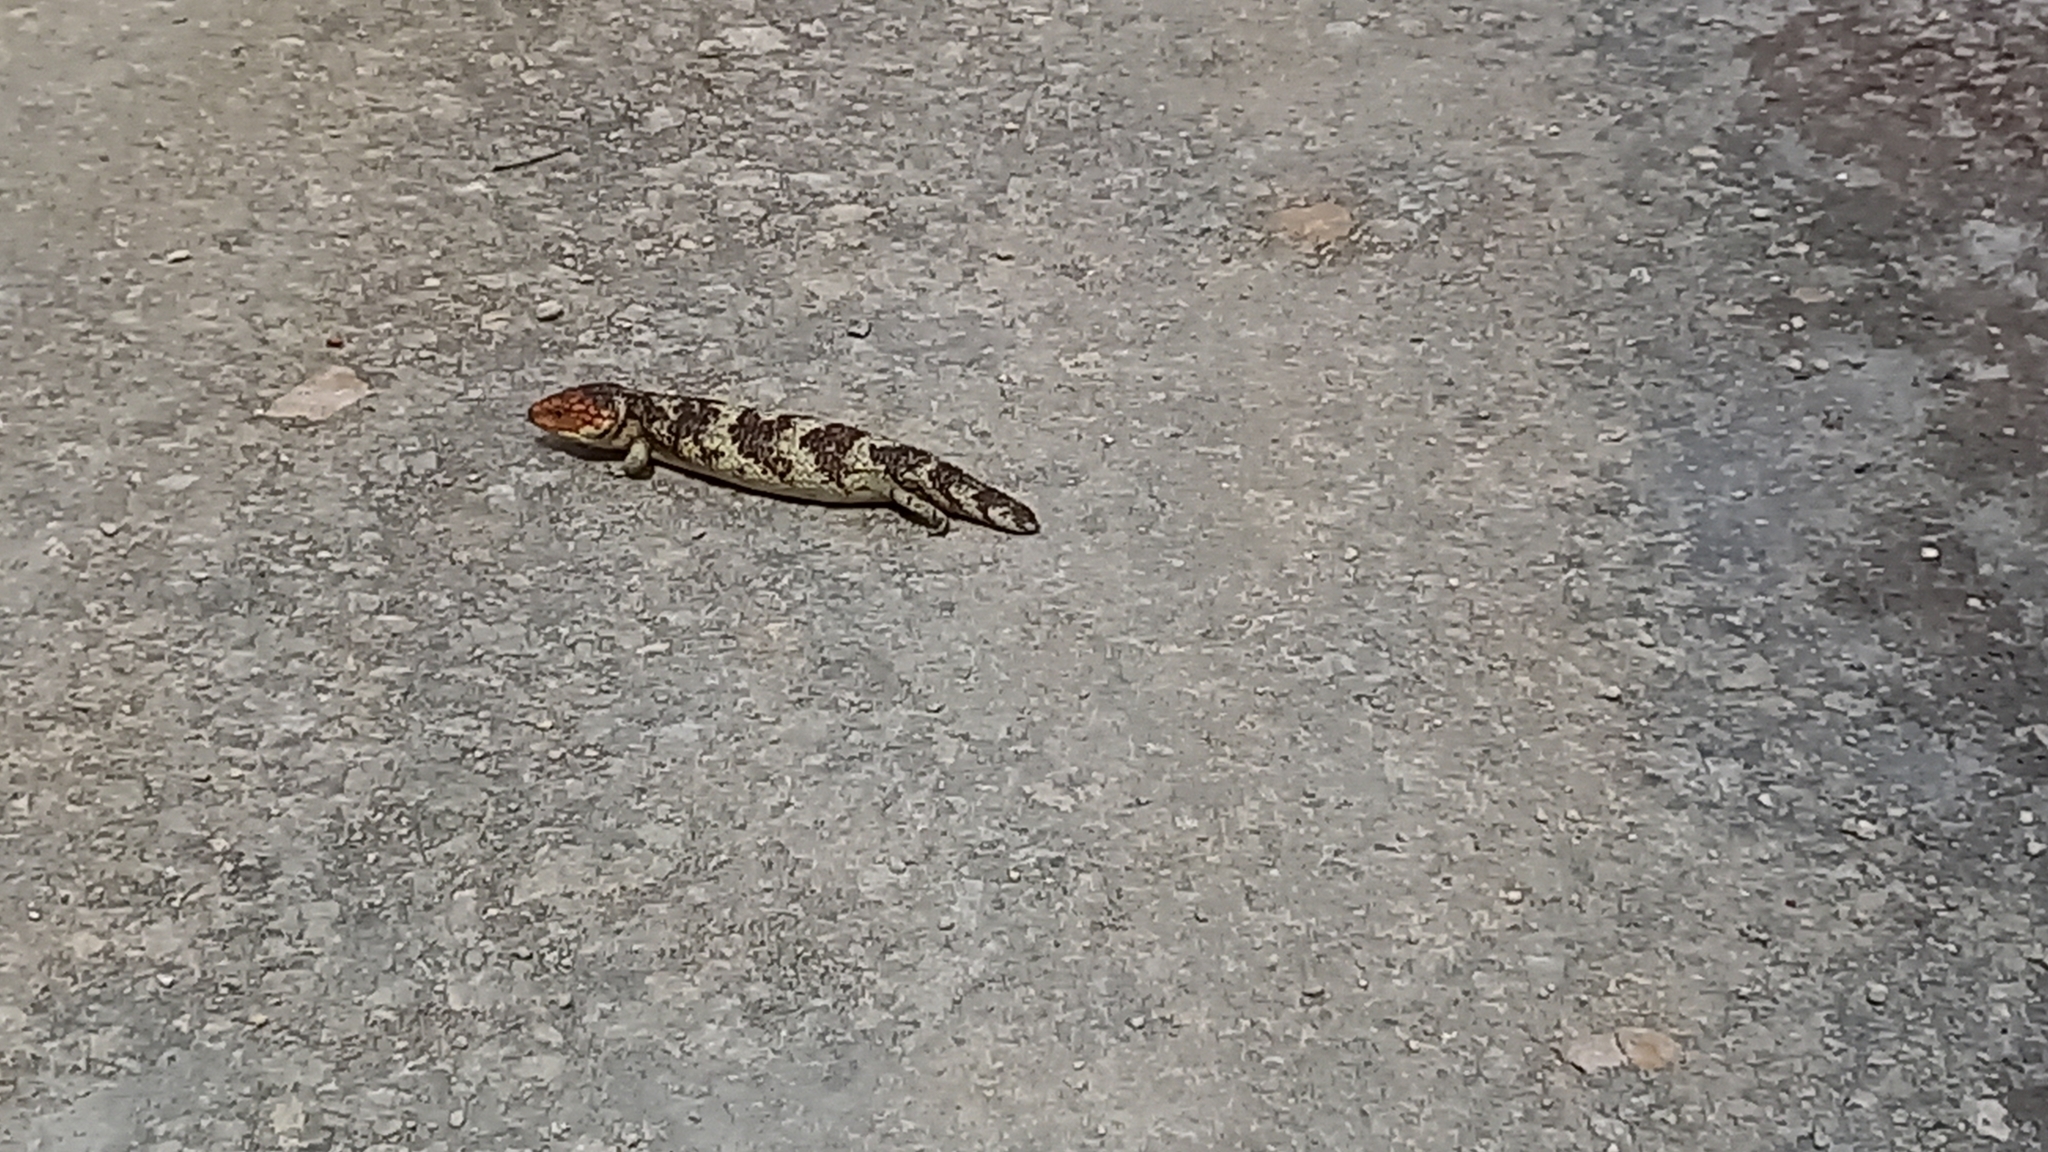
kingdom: Animalia
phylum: Chordata
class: Squamata
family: Scincidae
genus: Tiliqua
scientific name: Tiliqua rugosa
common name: Pinecone lizard
